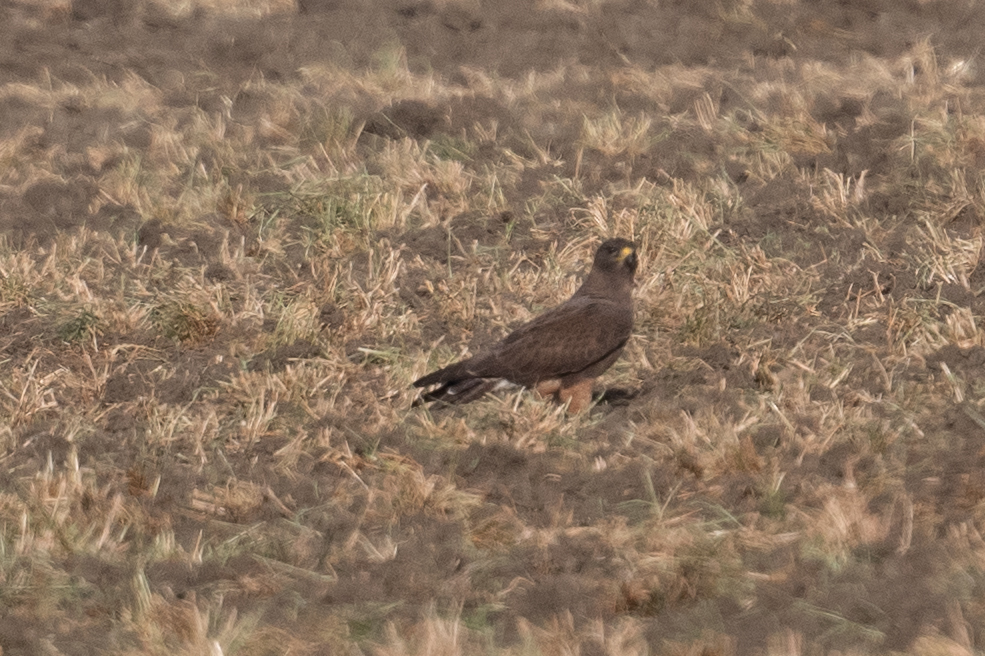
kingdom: Animalia
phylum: Chordata
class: Aves
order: Accipitriformes
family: Accipitridae
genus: Buteo
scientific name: Buteo swainsoni
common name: Swainson's hawk
